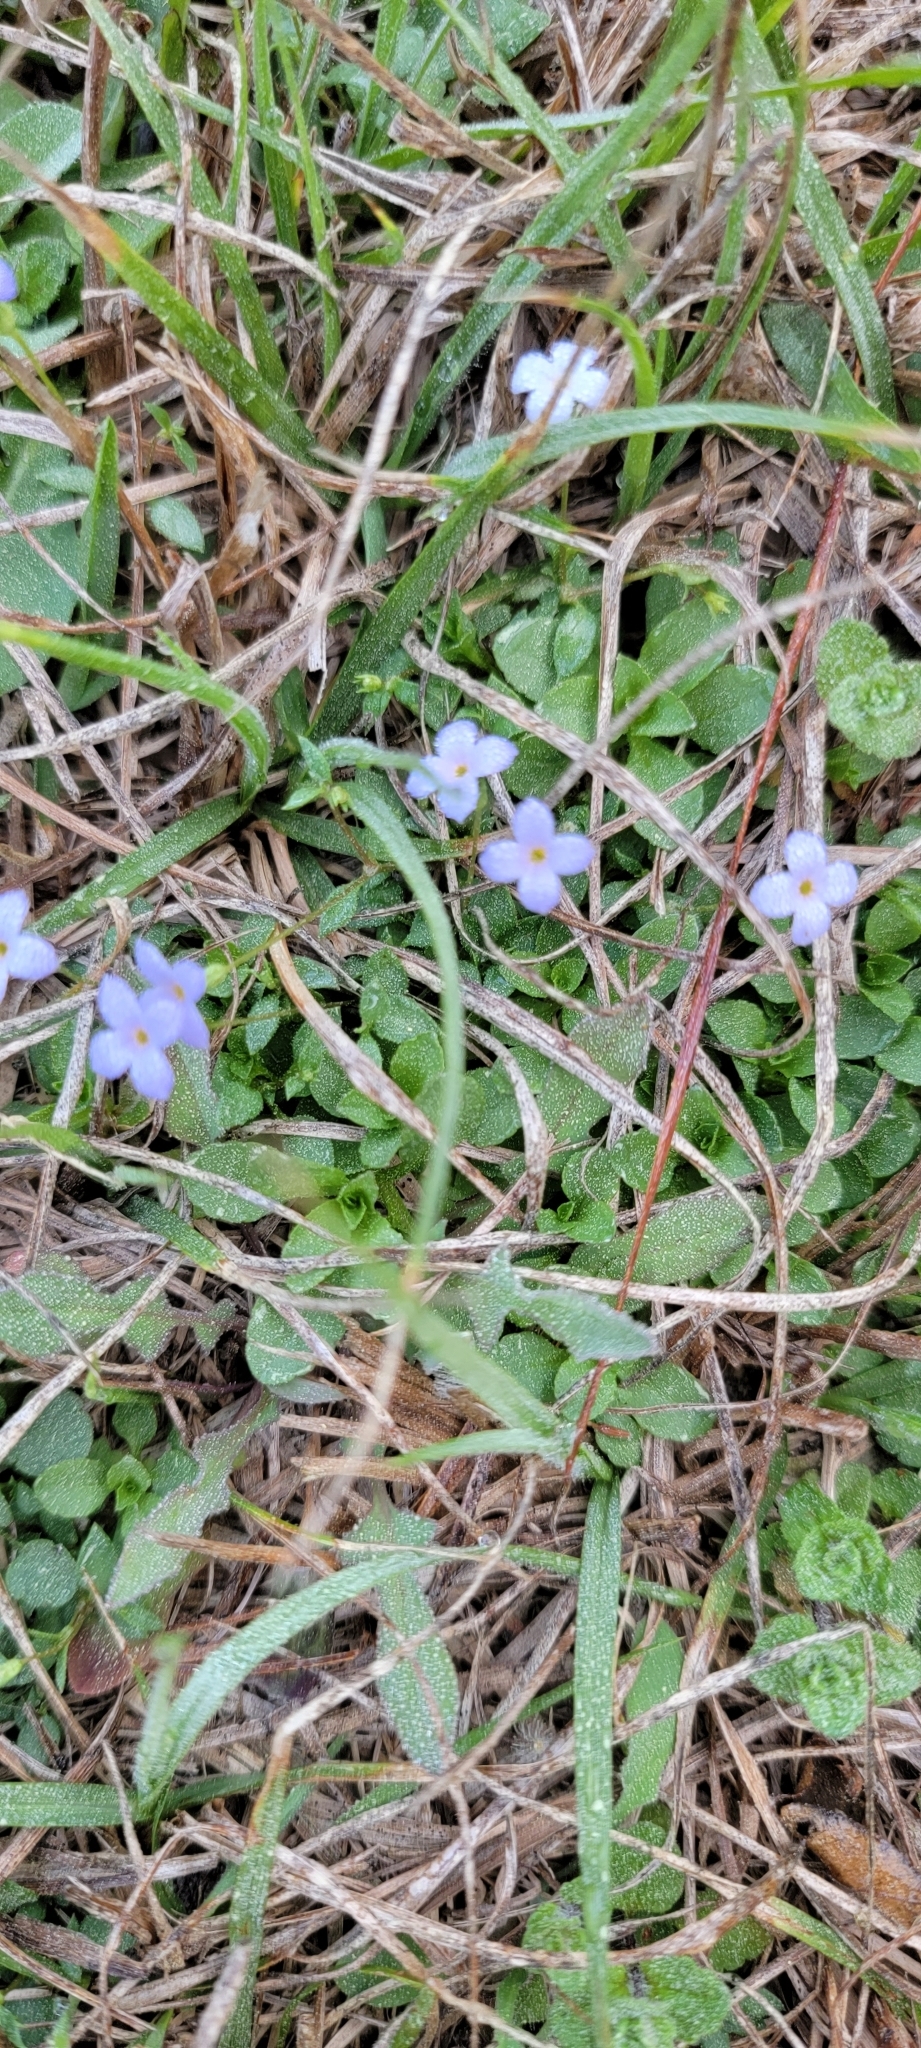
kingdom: Plantae
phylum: Tracheophyta
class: Magnoliopsida
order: Gentianales
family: Rubiaceae
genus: Houstonia
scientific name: Houstonia pusilla
